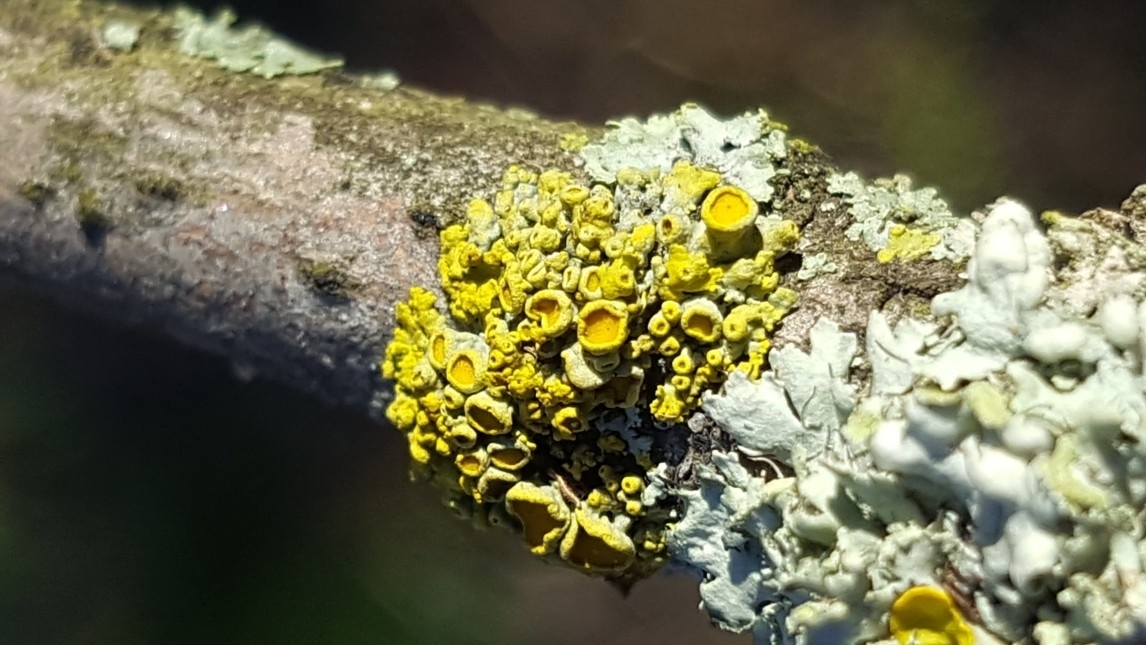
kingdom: Fungi
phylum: Ascomycota
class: Lecanoromycetes
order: Teloschistales
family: Teloschistaceae
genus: Polycauliona
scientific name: Polycauliona polycarpa
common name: Pin-cushion sunburst lichen
